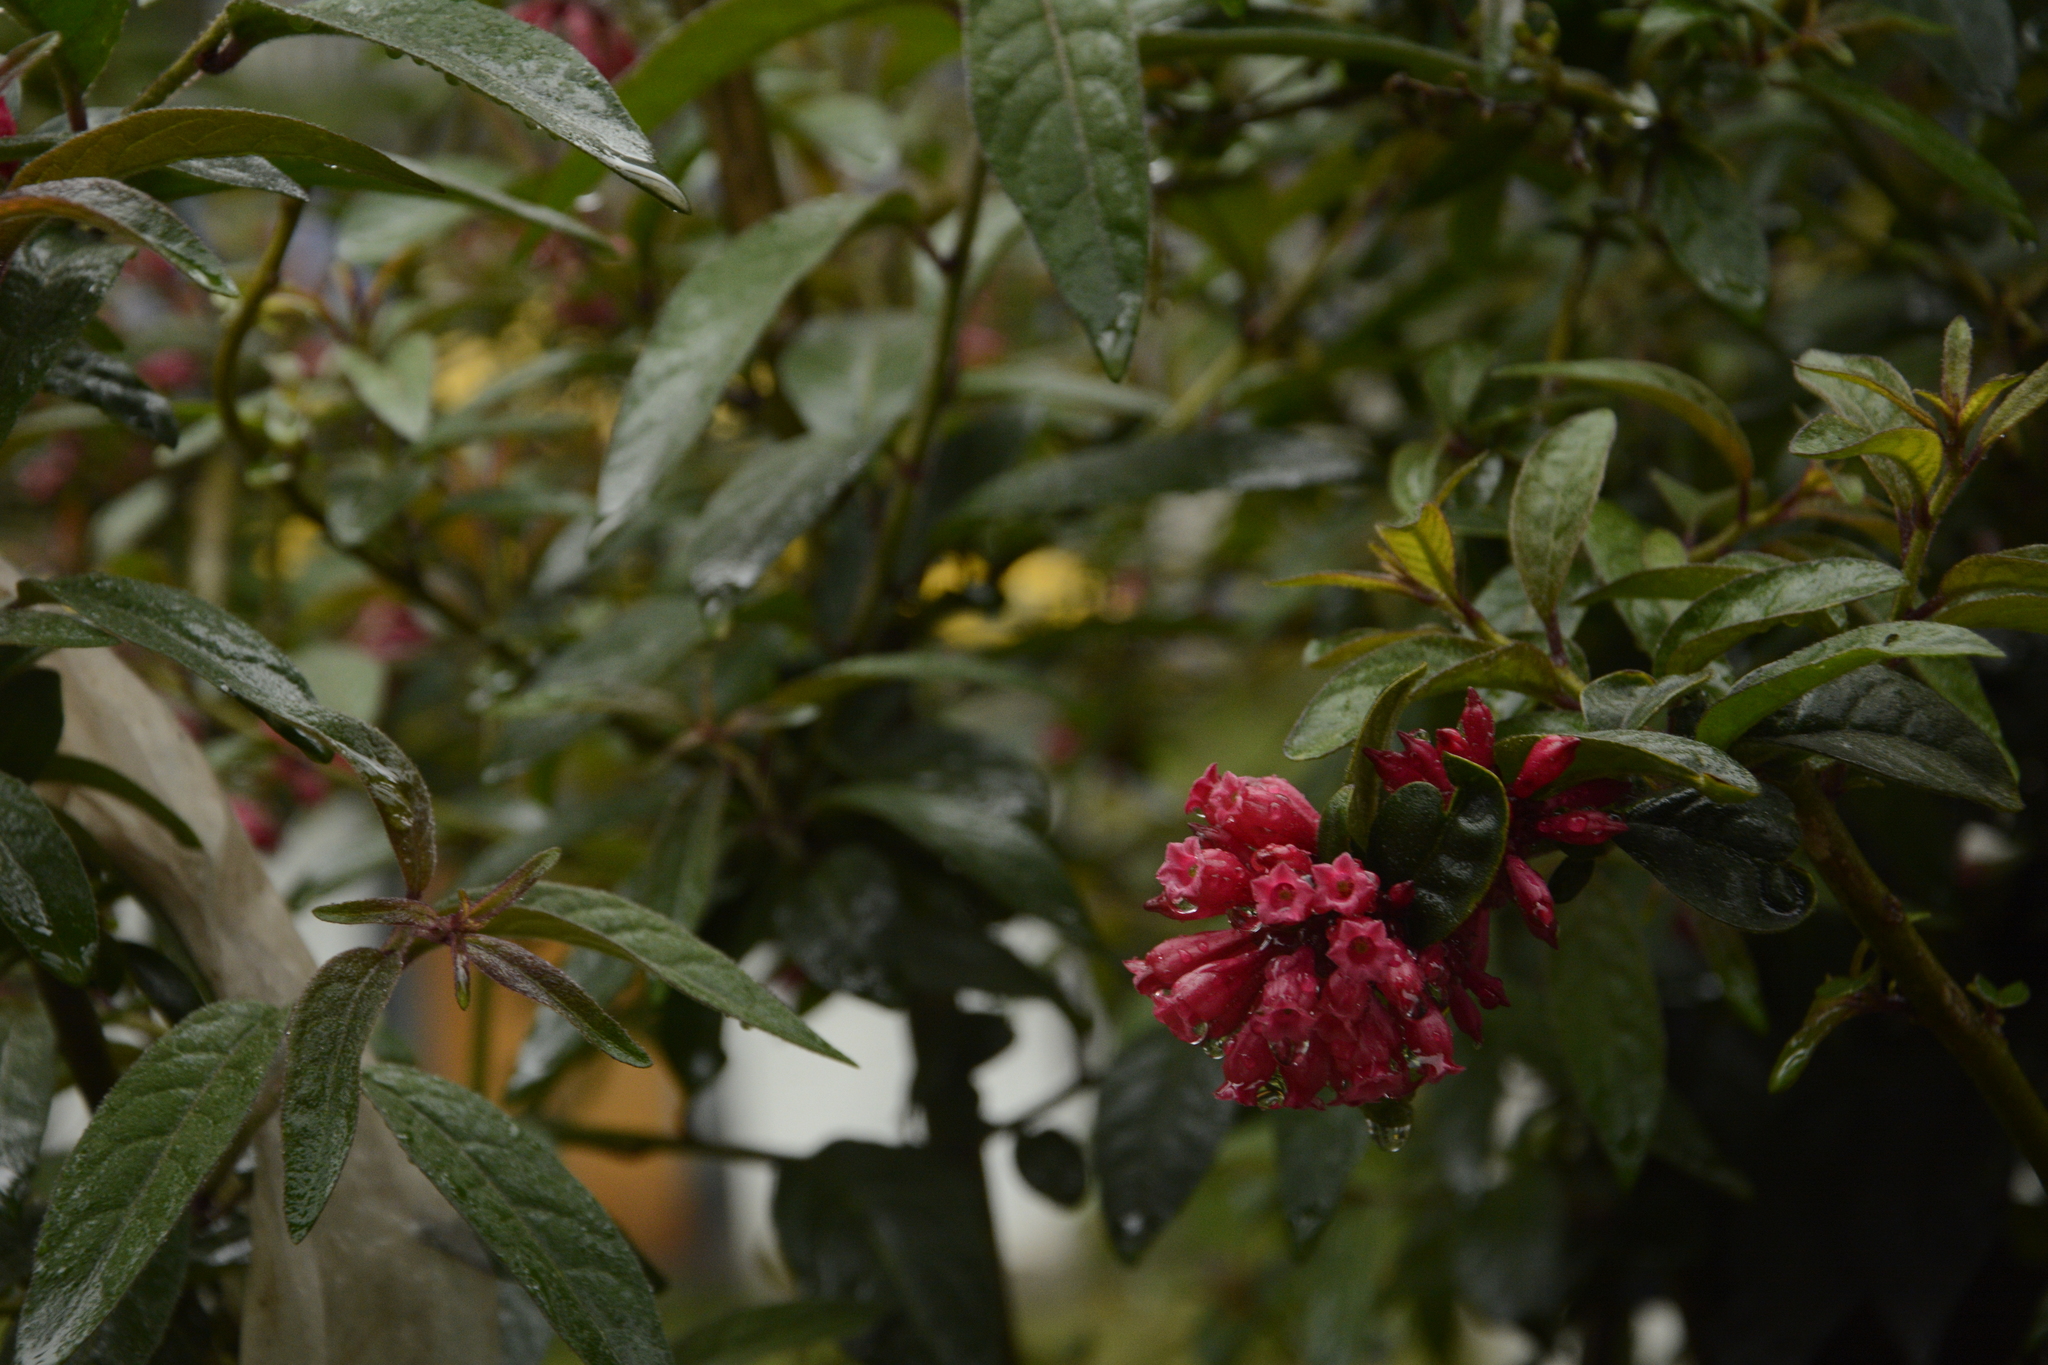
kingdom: Plantae
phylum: Tracheophyta
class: Magnoliopsida
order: Solanales
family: Solanaceae
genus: Cestrum
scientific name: Cestrum elegans
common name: Crimson cestrum
